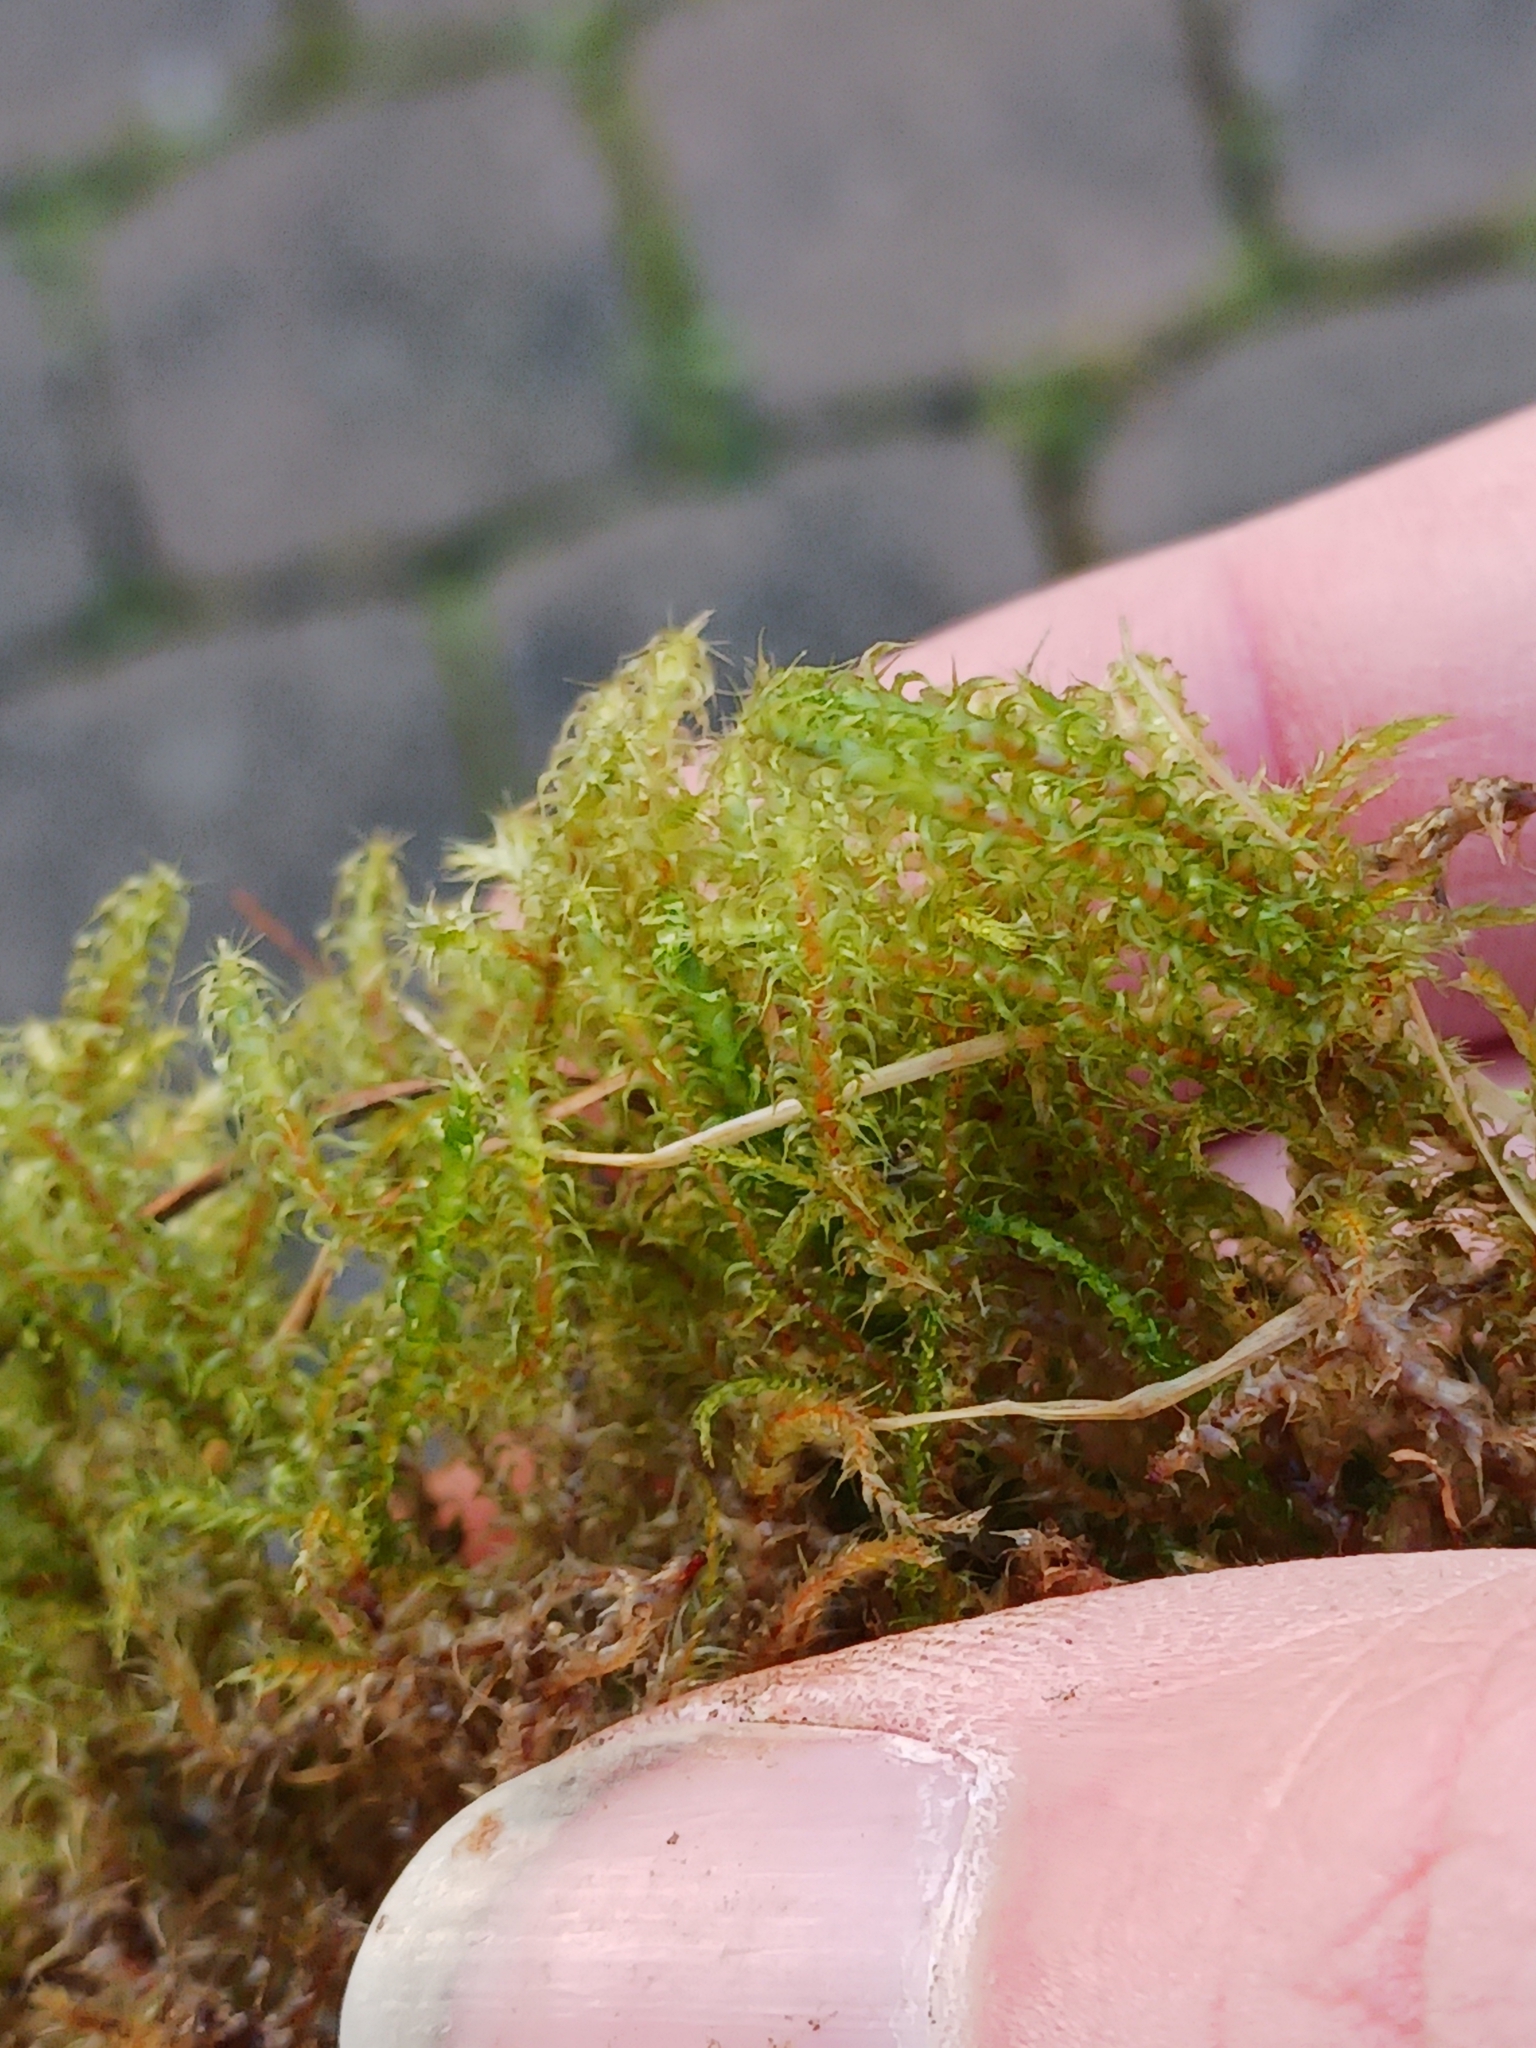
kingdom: Plantae
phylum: Bryophyta
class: Bryopsida
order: Hypnales
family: Hylocomiaceae
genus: Rhytidiadelphus
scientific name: Rhytidiadelphus squarrosus
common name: Springy turf-moss
